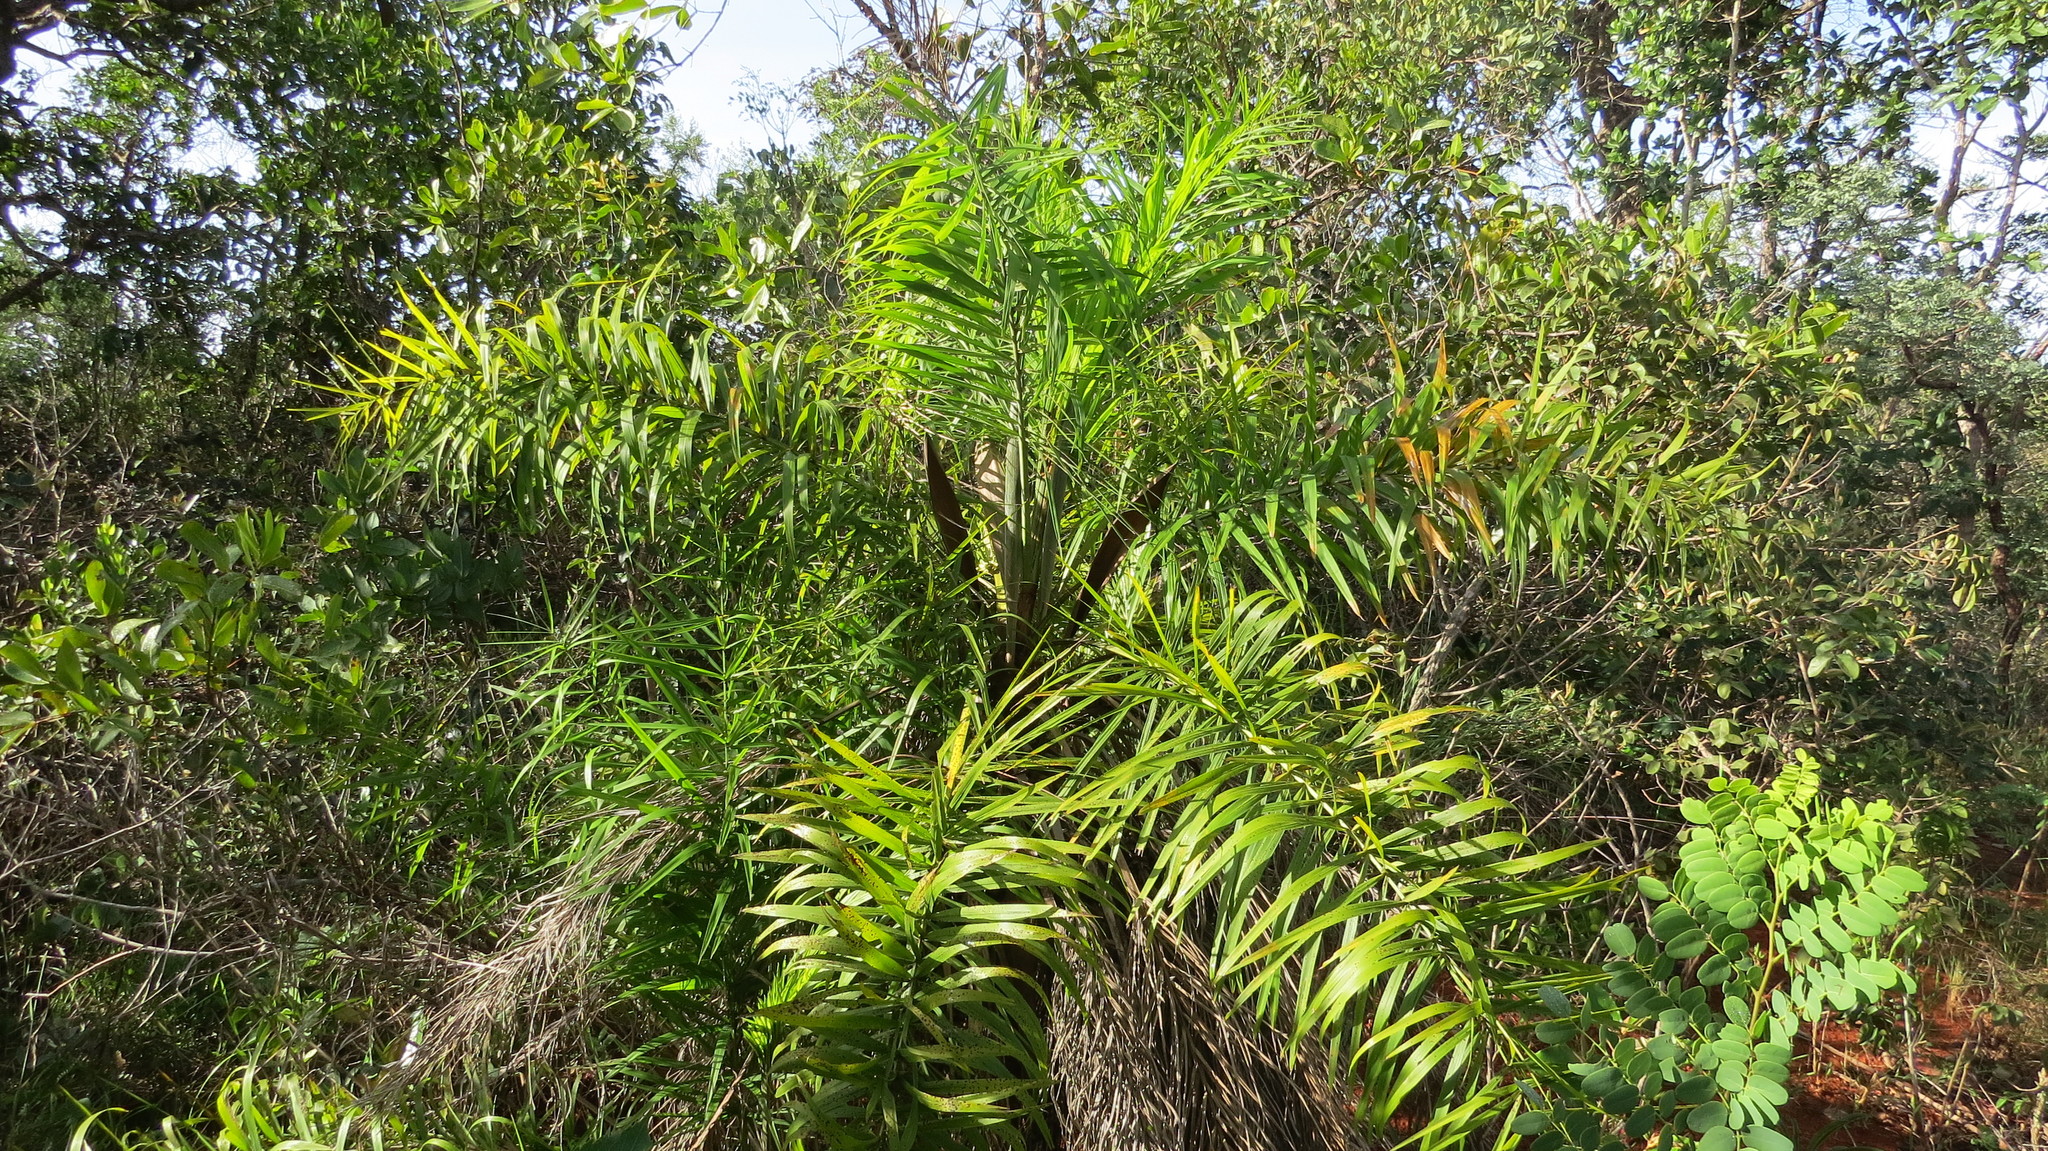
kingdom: Plantae
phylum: Tracheophyta
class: Liliopsida
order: Arecales
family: Arecaceae
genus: Syagrus
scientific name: Syagrus flexuosa
